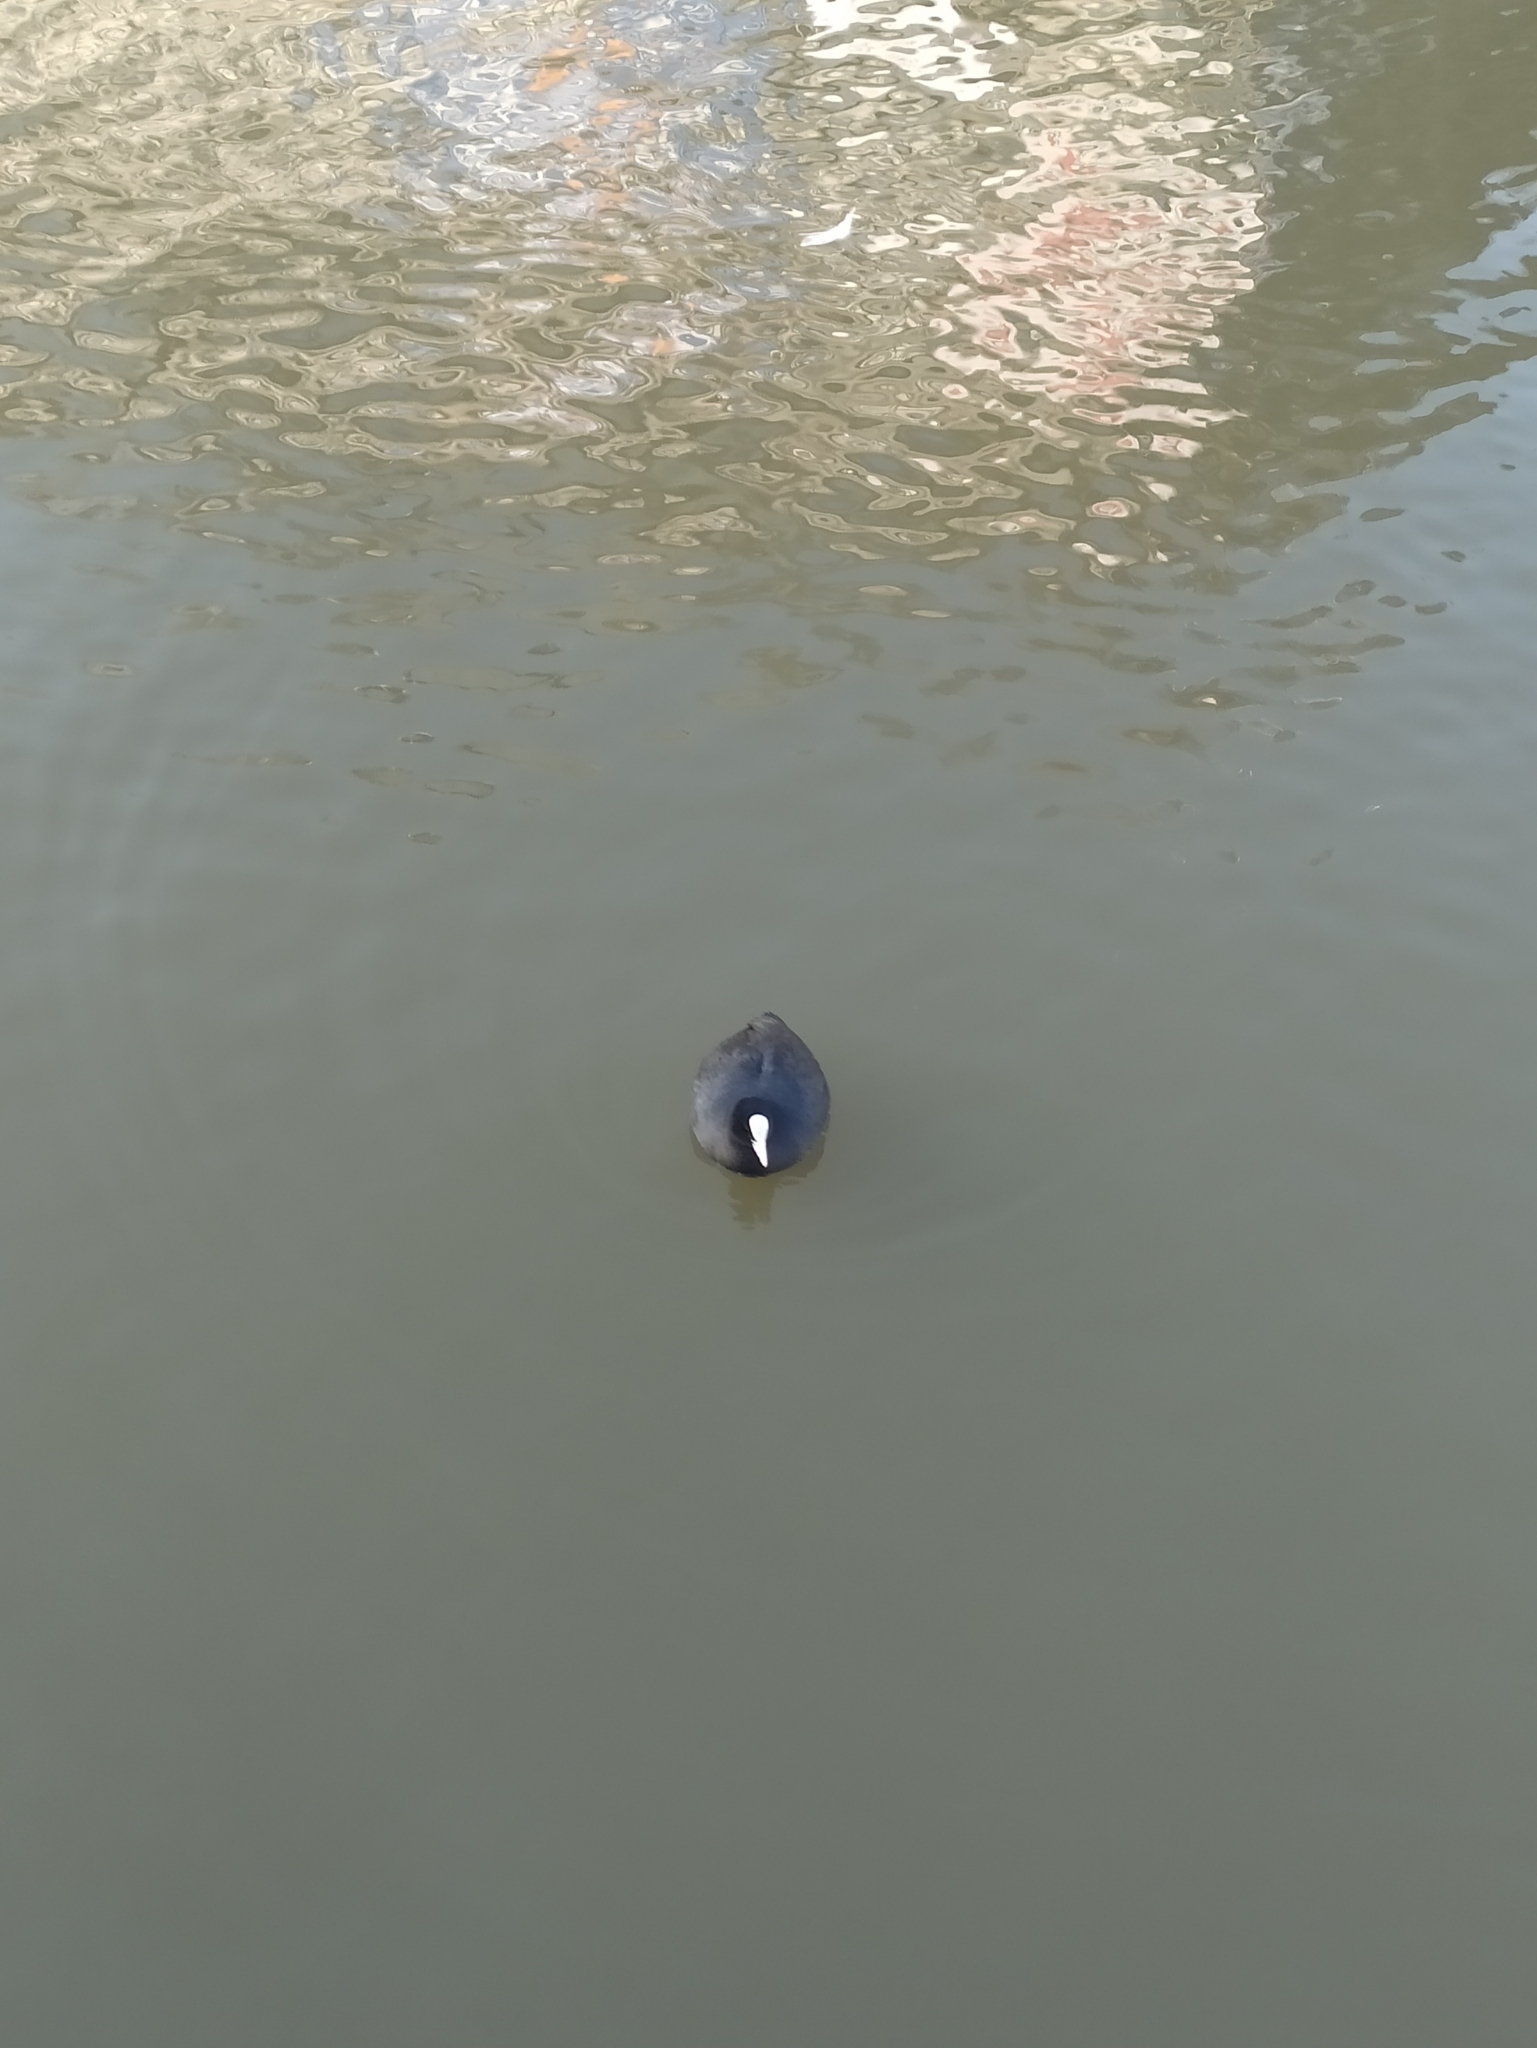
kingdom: Animalia
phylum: Chordata
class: Aves
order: Gruiformes
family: Rallidae
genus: Fulica
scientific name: Fulica atra
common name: Eurasian coot
